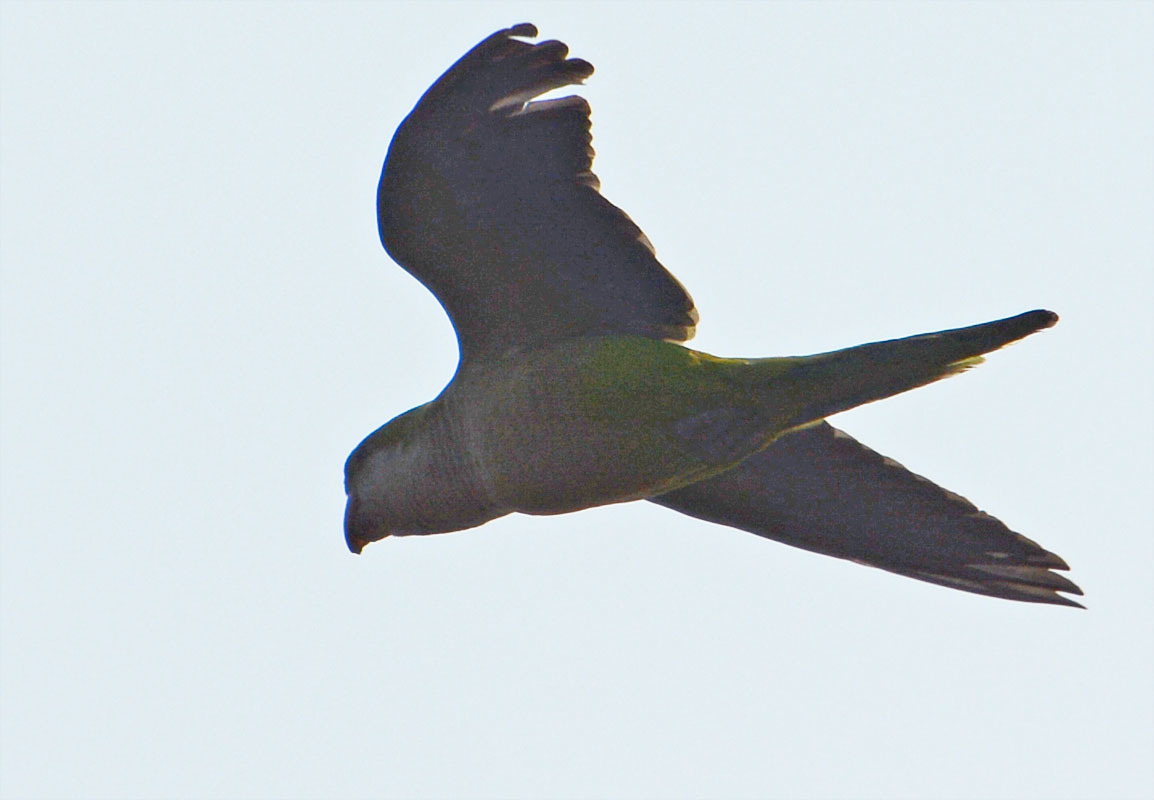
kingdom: Animalia
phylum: Chordata
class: Aves
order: Psittaciformes
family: Psittacidae
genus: Myiopsitta
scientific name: Myiopsitta monachus
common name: Monk parakeet
